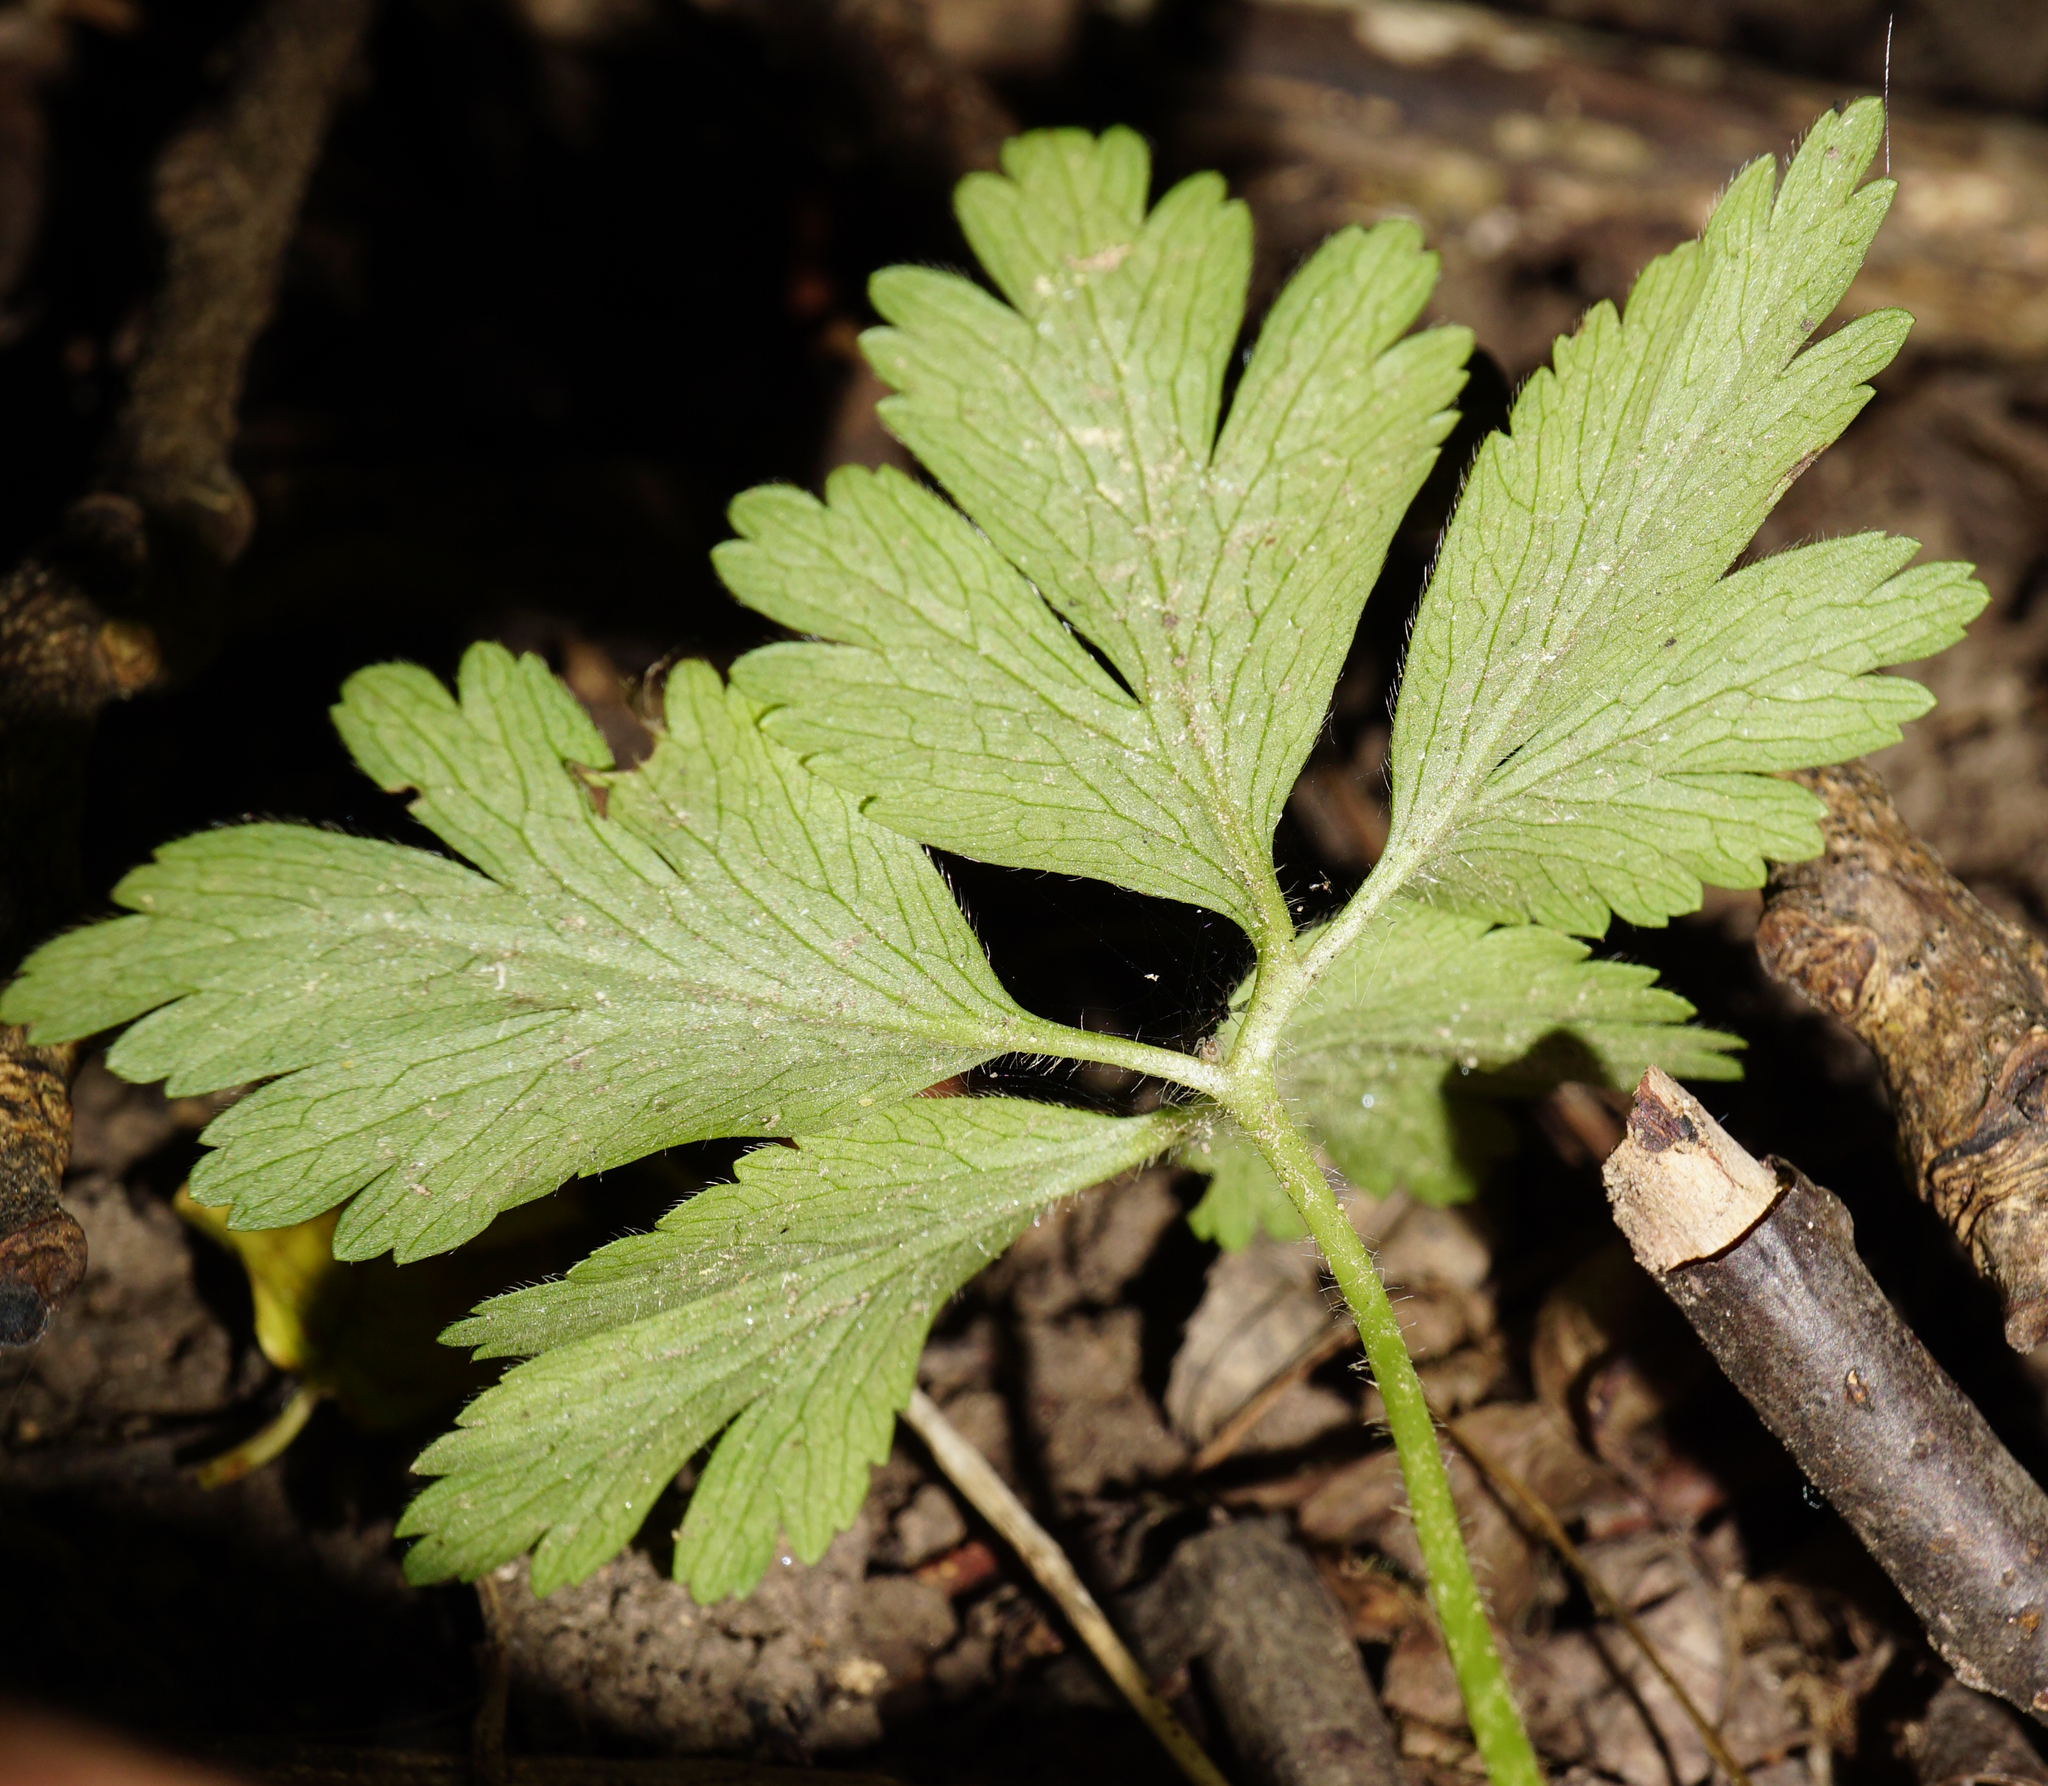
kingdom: Plantae
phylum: Tracheophyta
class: Magnoliopsida
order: Ranunculales
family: Ranunculaceae
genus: Anemone
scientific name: Anemone nemorosa
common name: Wood anemone
